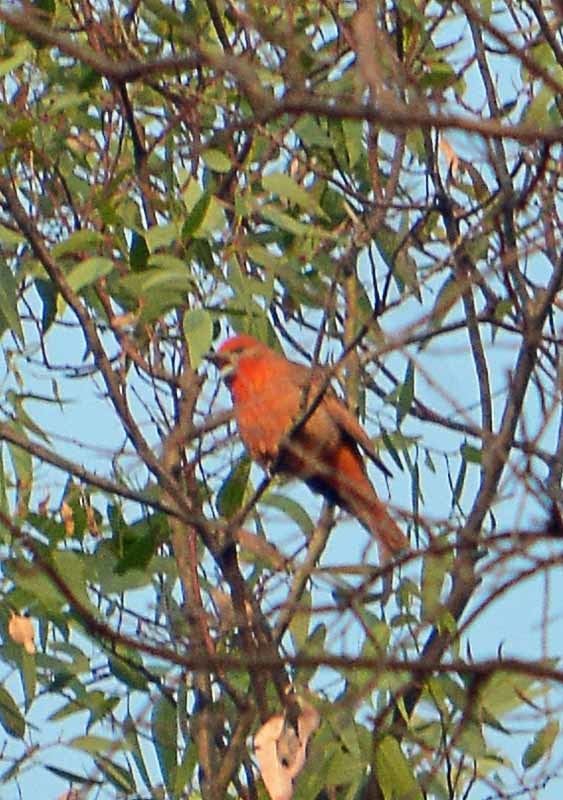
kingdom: Animalia
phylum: Chordata
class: Aves
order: Passeriformes
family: Cardinalidae
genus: Piranga
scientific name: Piranga flava
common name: Red tanager
